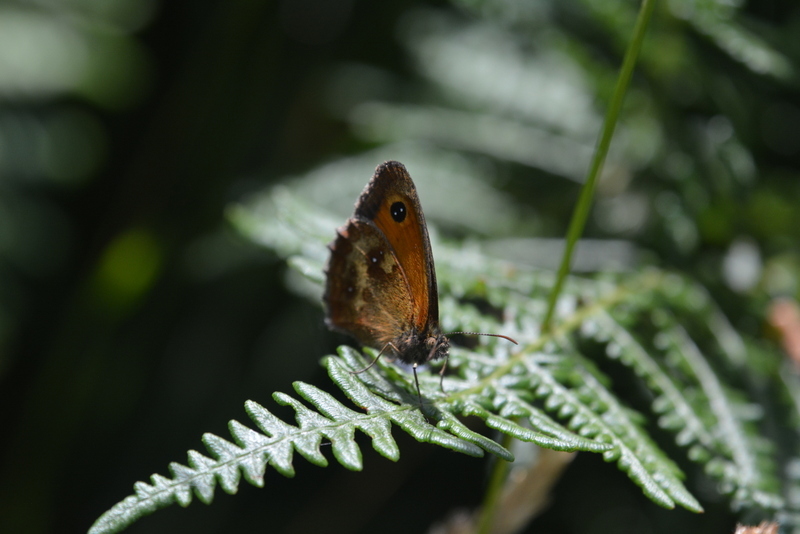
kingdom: Animalia
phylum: Arthropoda
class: Insecta
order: Lepidoptera
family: Nymphalidae
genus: Pyronia
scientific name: Pyronia tithonus
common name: Gatekeeper
